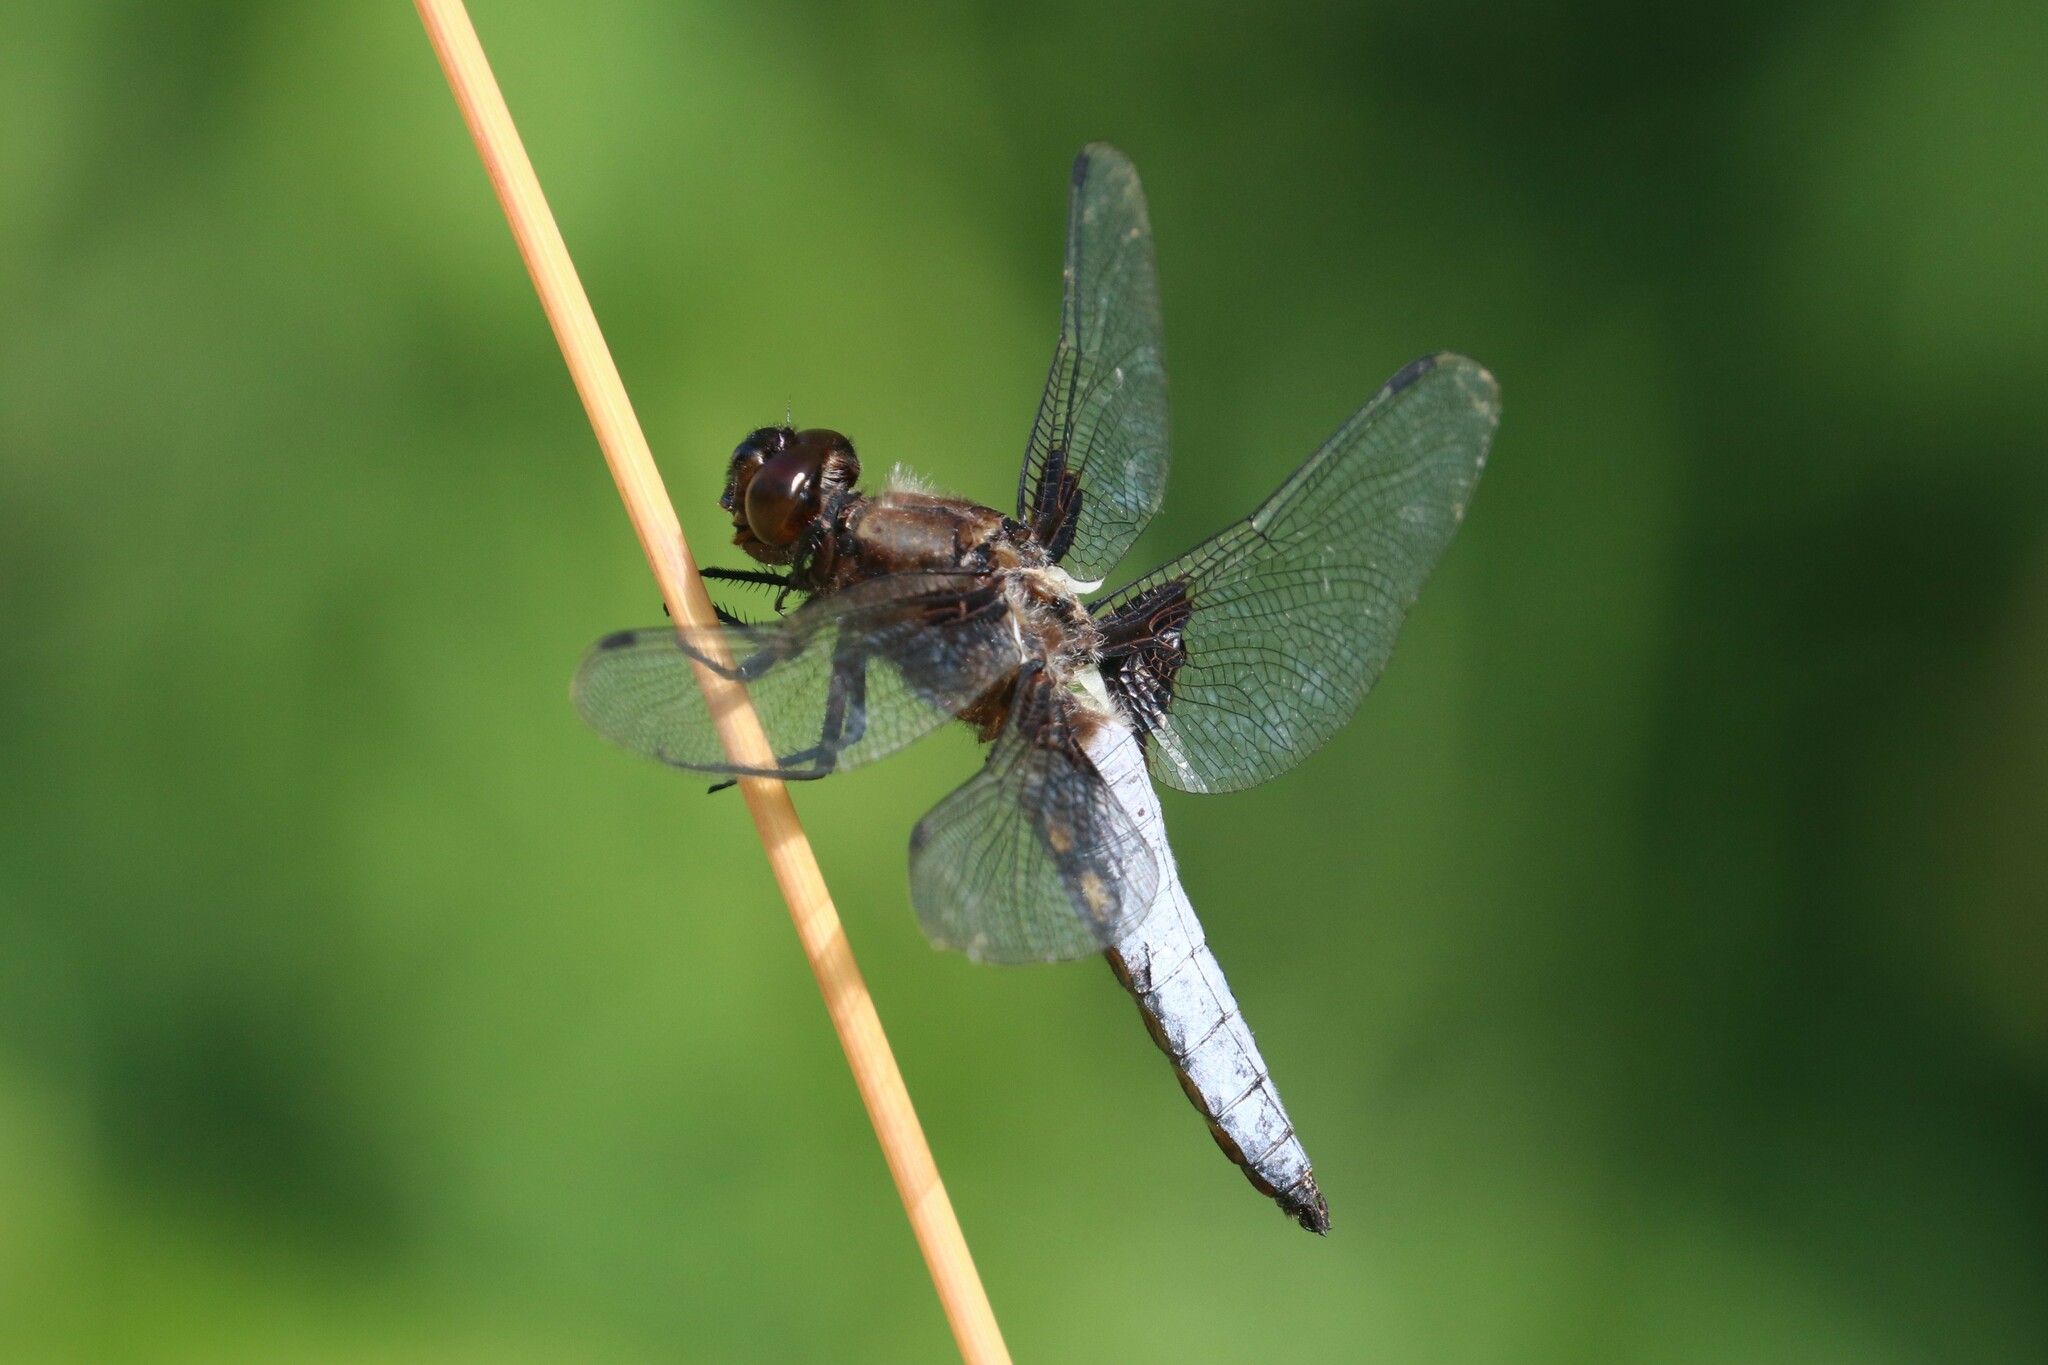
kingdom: Animalia
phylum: Arthropoda
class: Insecta
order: Odonata
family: Libellulidae
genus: Libellula
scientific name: Libellula depressa
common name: Broad-bodied chaser
